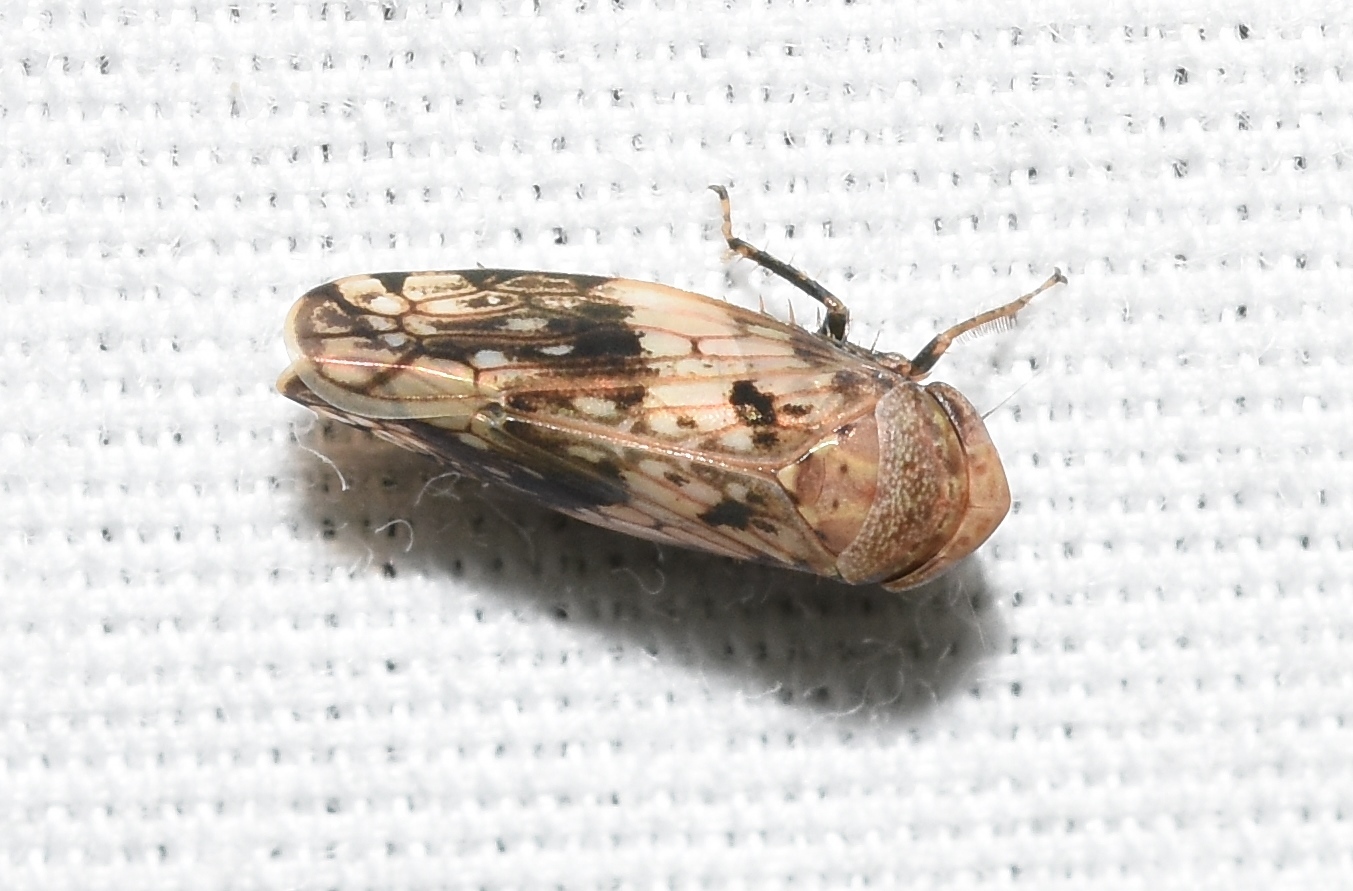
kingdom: Animalia
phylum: Arthropoda
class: Insecta
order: Hemiptera
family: Cicadellidae
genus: Menosoma
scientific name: Menosoma cinctum
